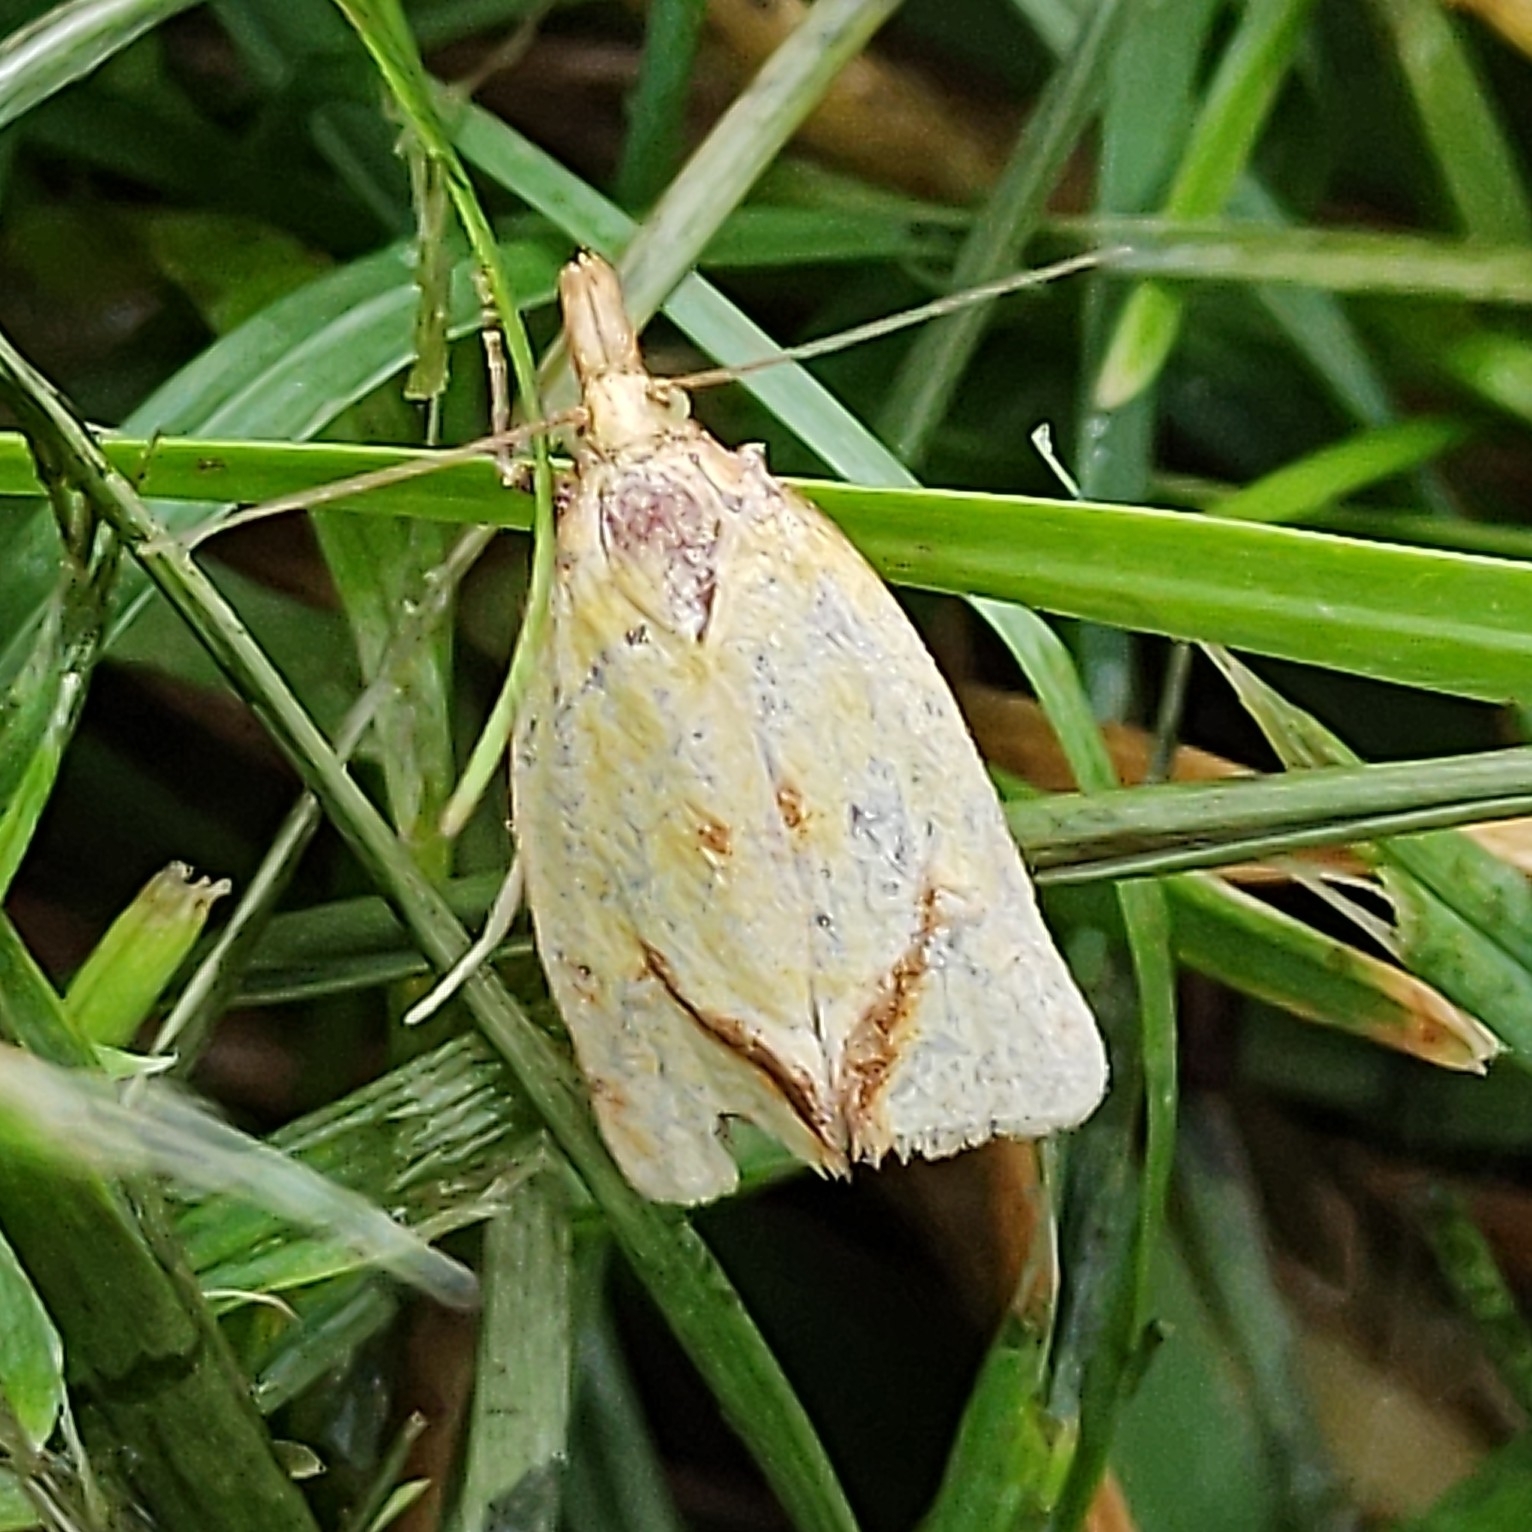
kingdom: Animalia
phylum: Arthropoda
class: Insecta
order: Lepidoptera
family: Tortricidae
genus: Agapeta
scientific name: Agapeta hamana
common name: Common yellow conch
